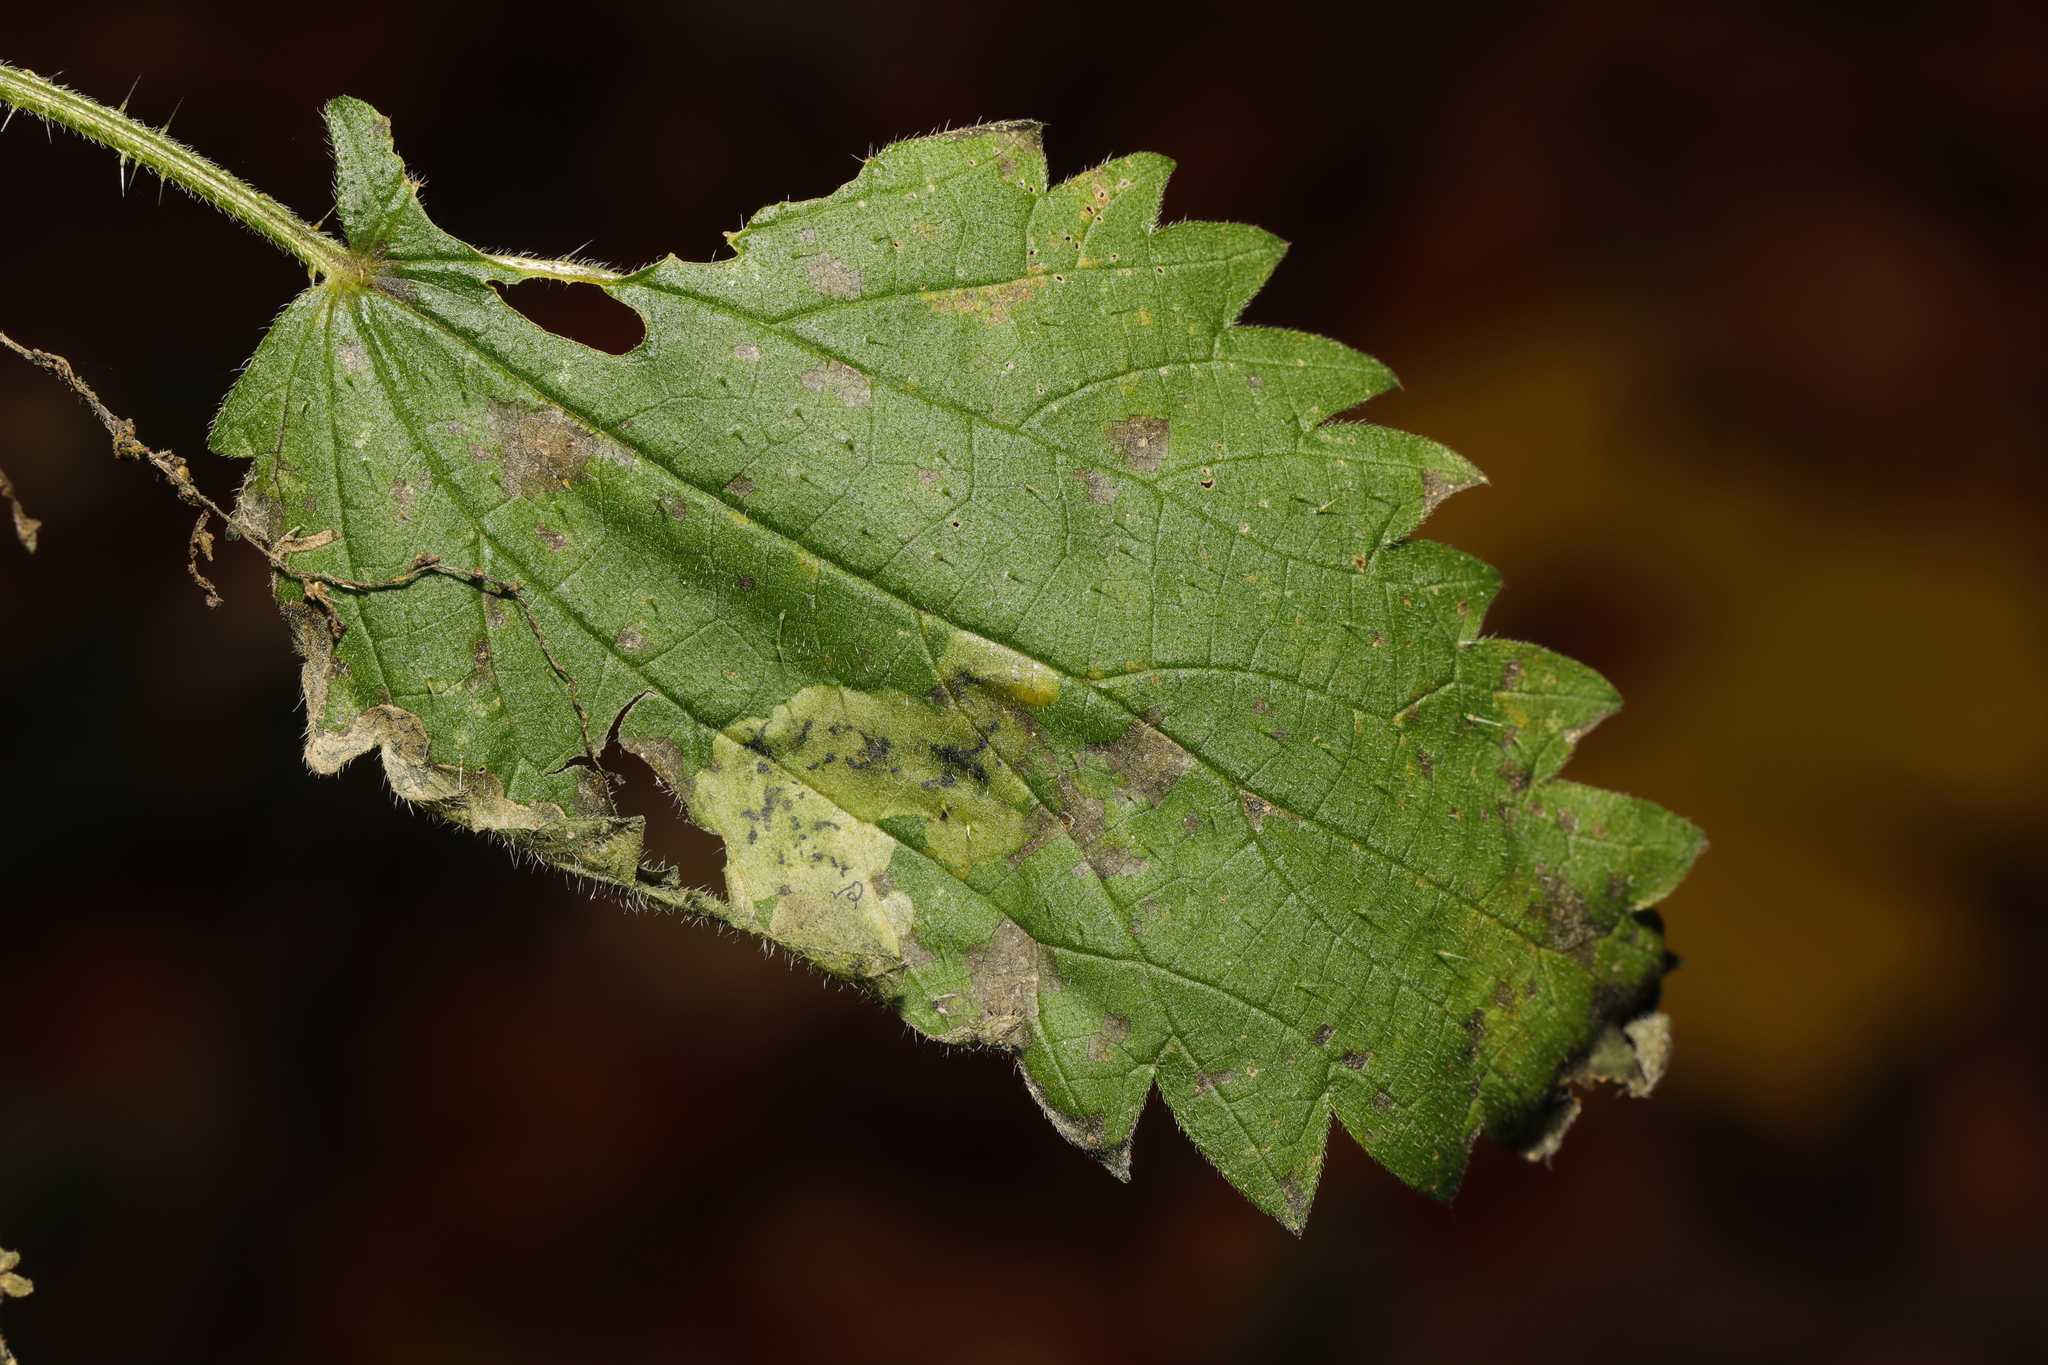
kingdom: Animalia
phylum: Arthropoda
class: Insecta
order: Diptera
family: Agromyzidae
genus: Agromyza
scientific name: Agromyza anthracina
